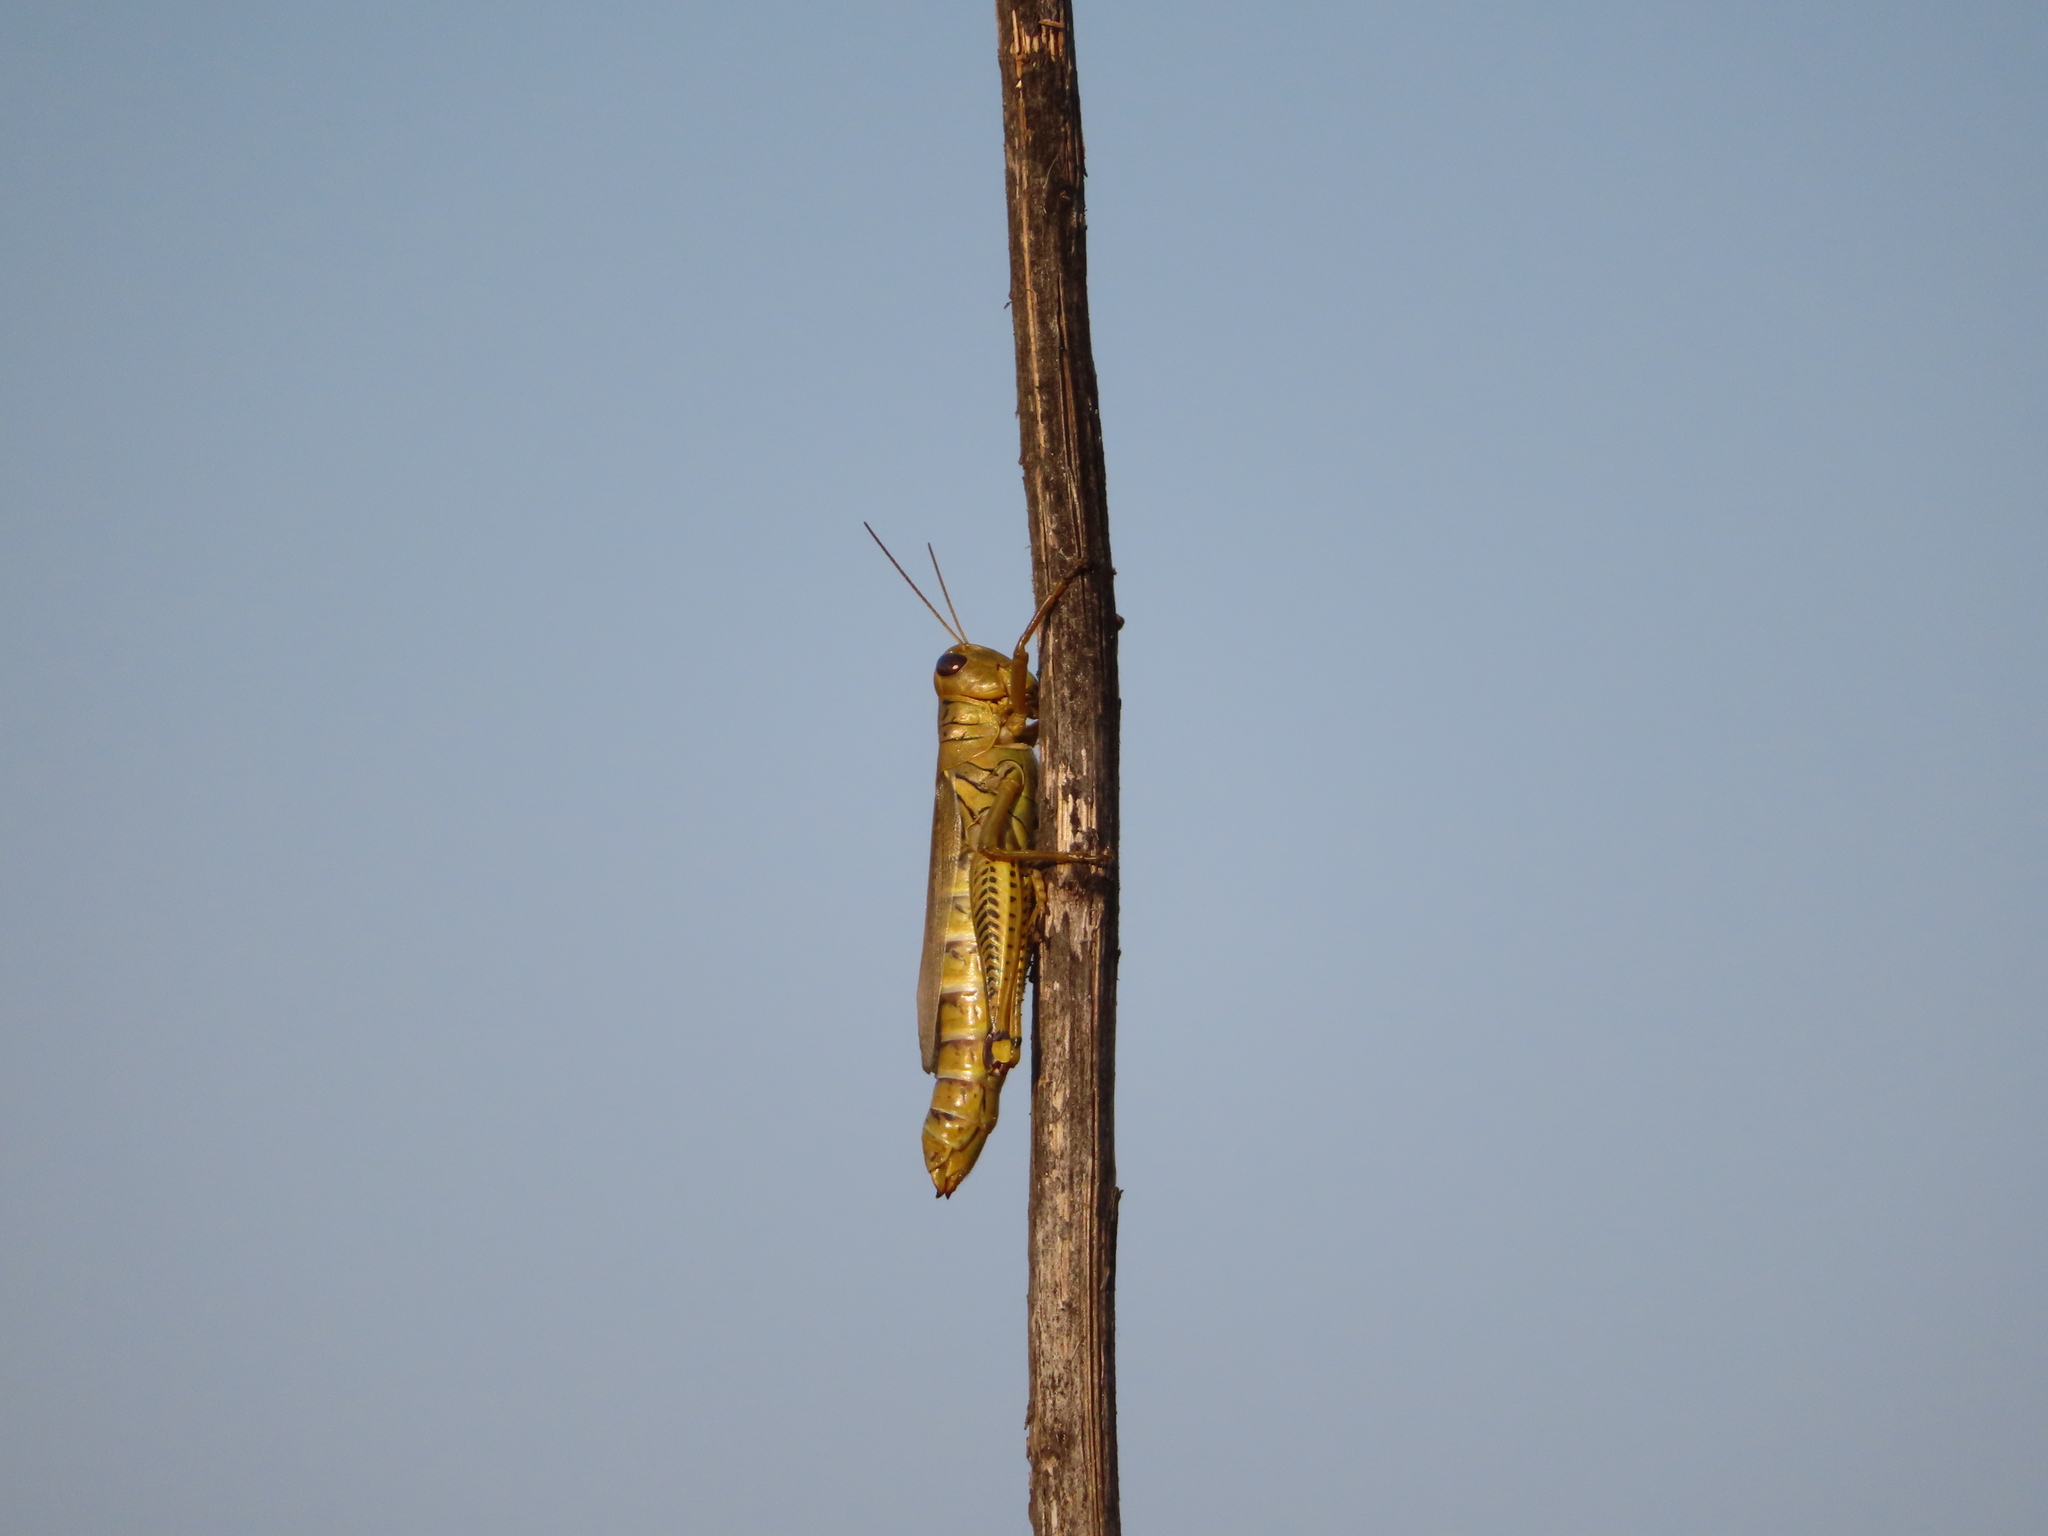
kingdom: Animalia
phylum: Arthropoda
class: Insecta
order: Orthoptera
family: Acrididae
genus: Melanoplus
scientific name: Melanoplus differentialis
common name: Differential grasshopper
